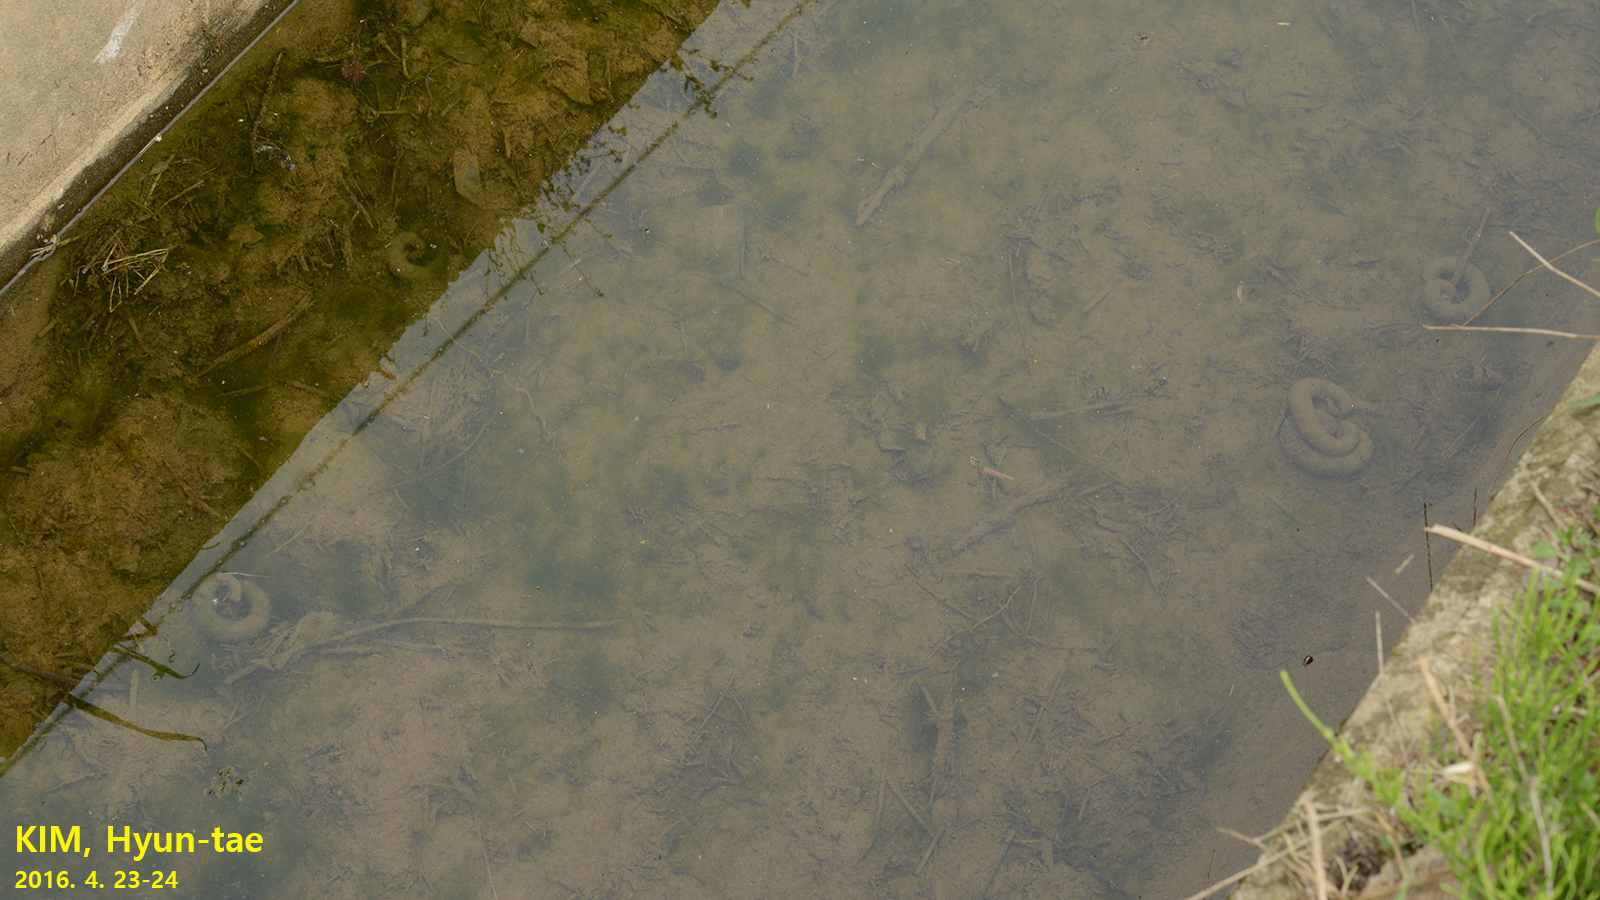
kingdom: Animalia
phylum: Chordata
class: Amphibia
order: Caudata
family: Hynobiidae
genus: Hynobius
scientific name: Hynobius leechii
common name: Gensan salamander
